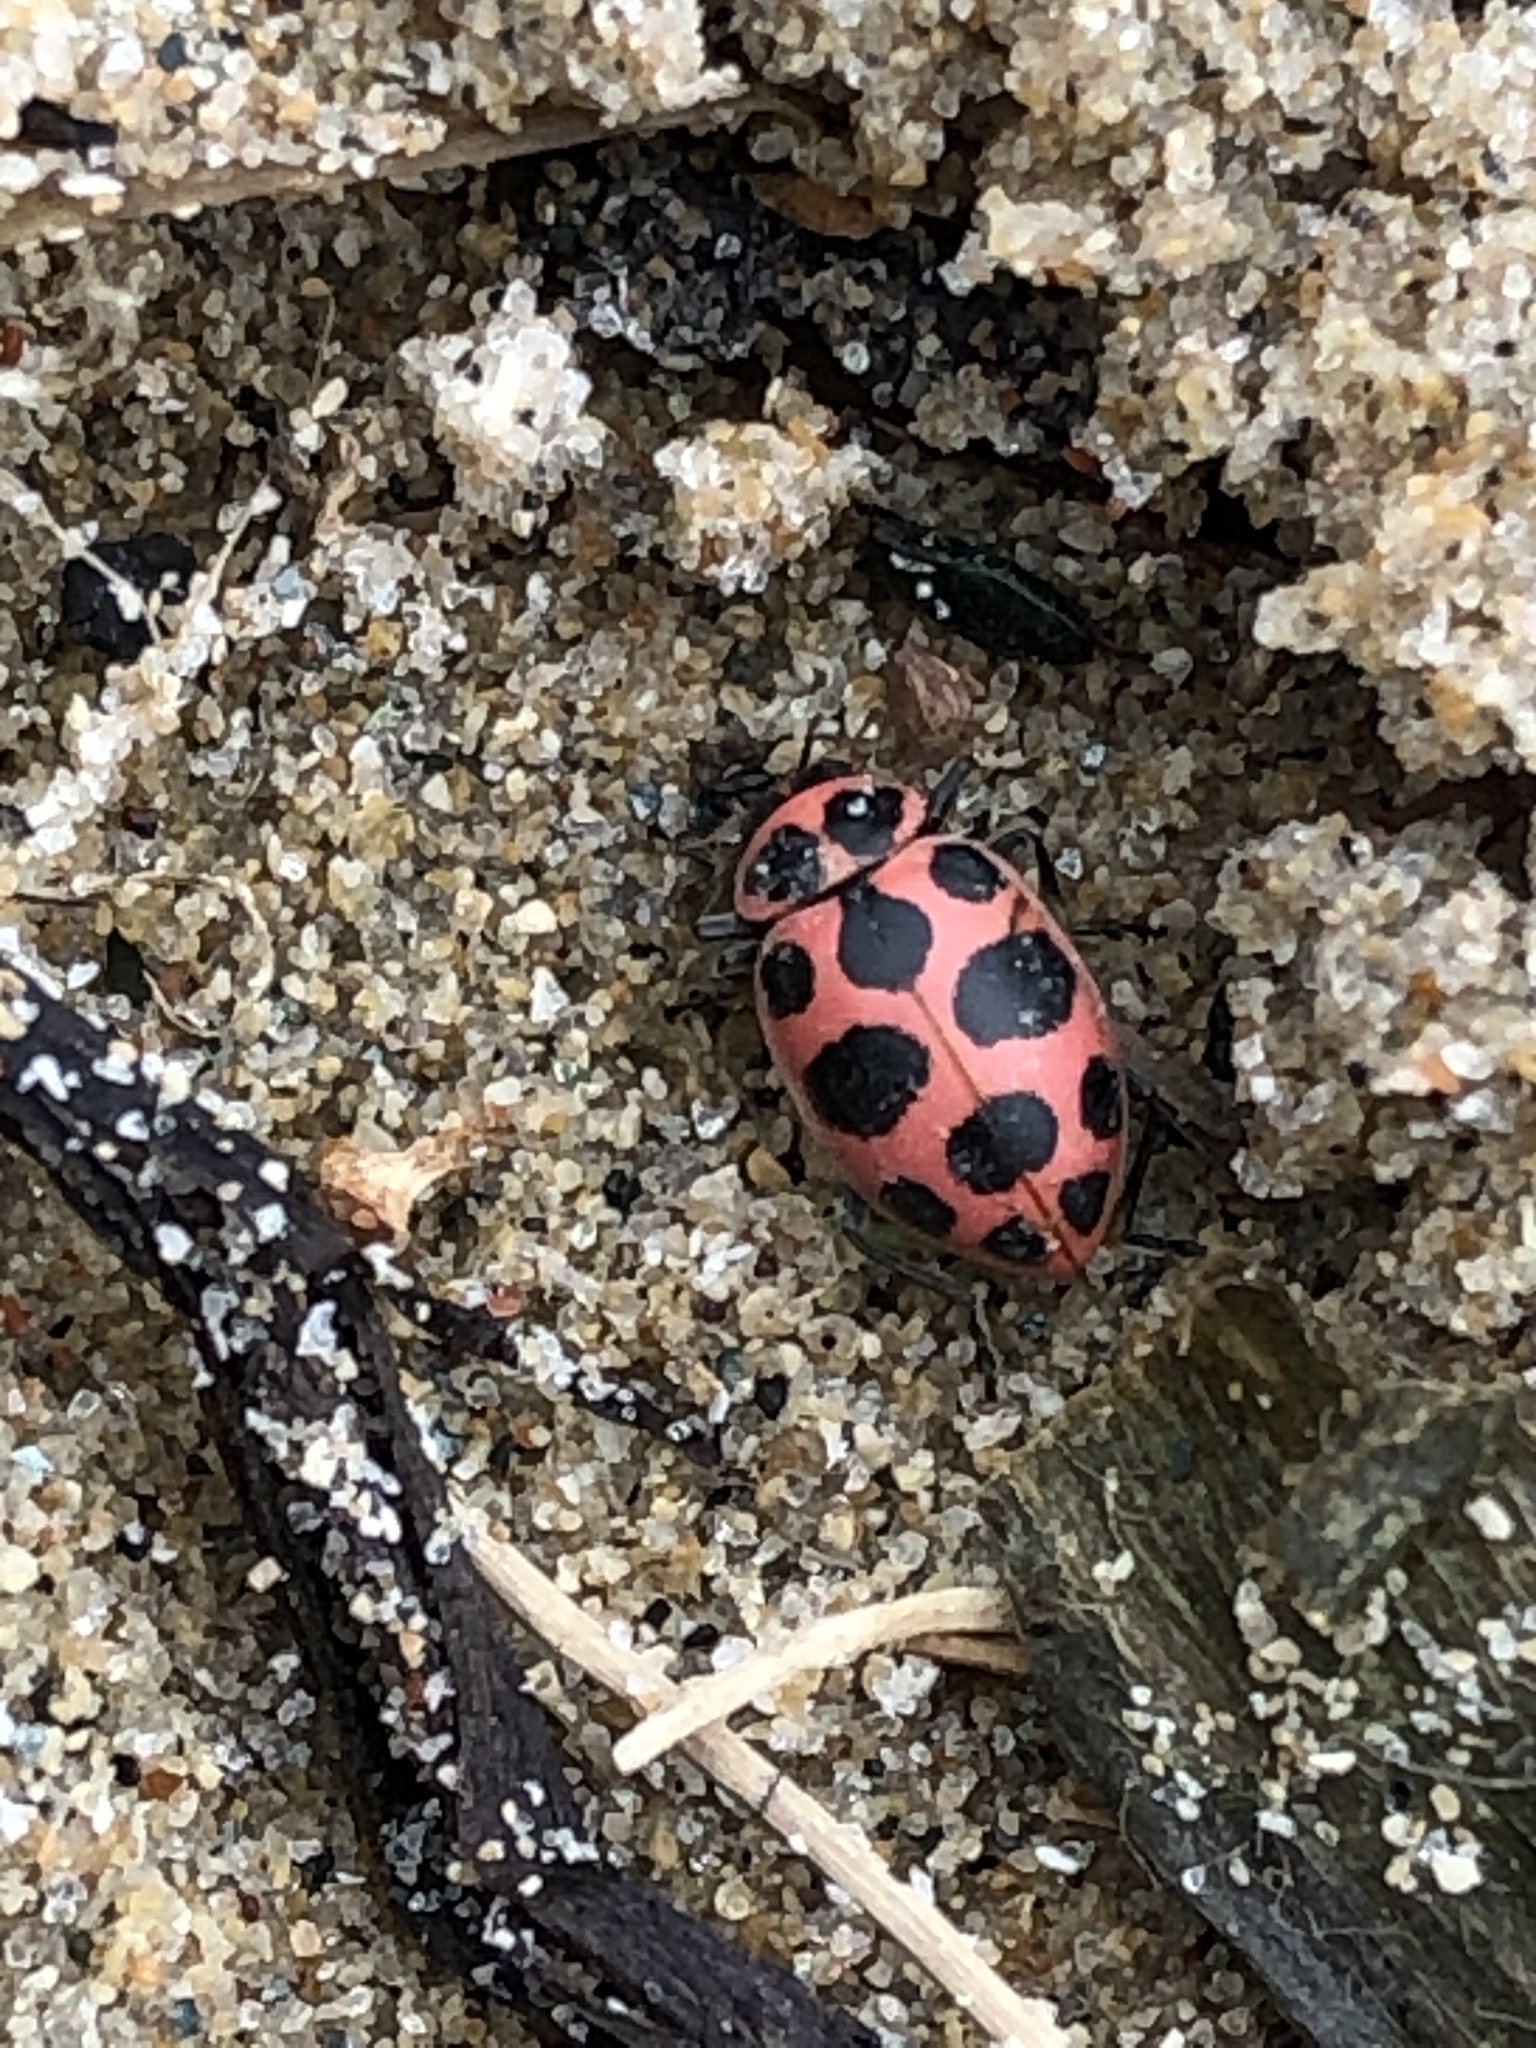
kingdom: Animalia
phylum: Arthropoda
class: Insecta
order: Coleoptera
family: Coccinellidae
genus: Coleomegilla
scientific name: Coleomegilla maculata
